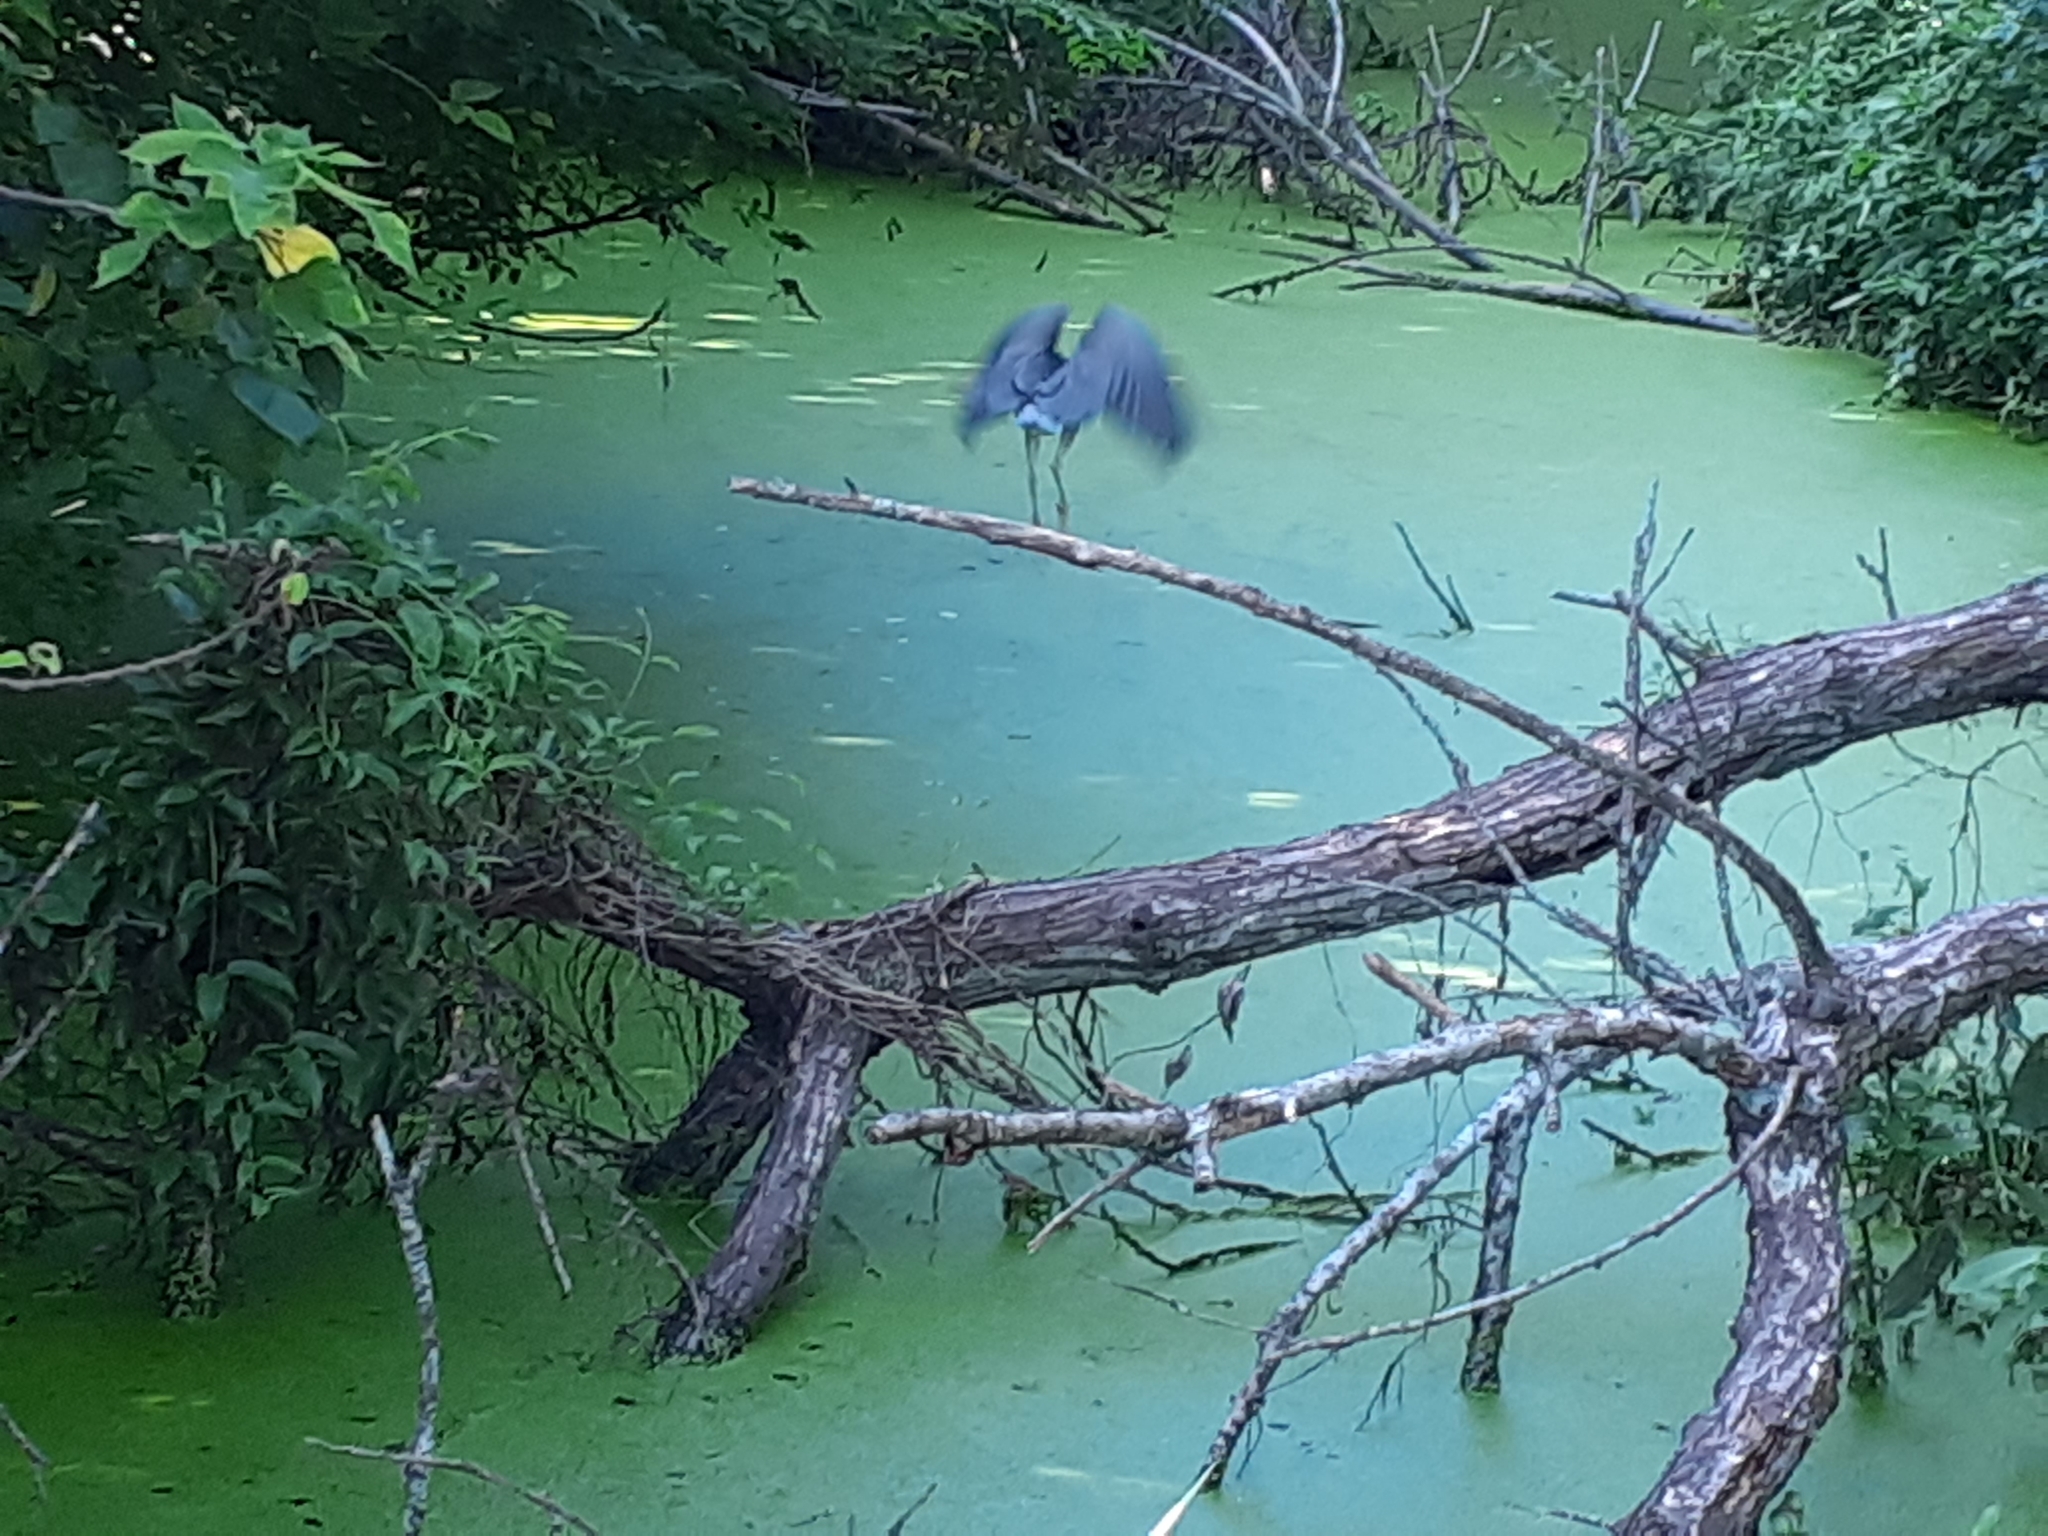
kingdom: Animalia
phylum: Chordata
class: Aves
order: Pelecaniformes
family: Ardeidae
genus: Nycticorax
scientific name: Nycticorax nycticorax
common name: Black-crowned night heron
